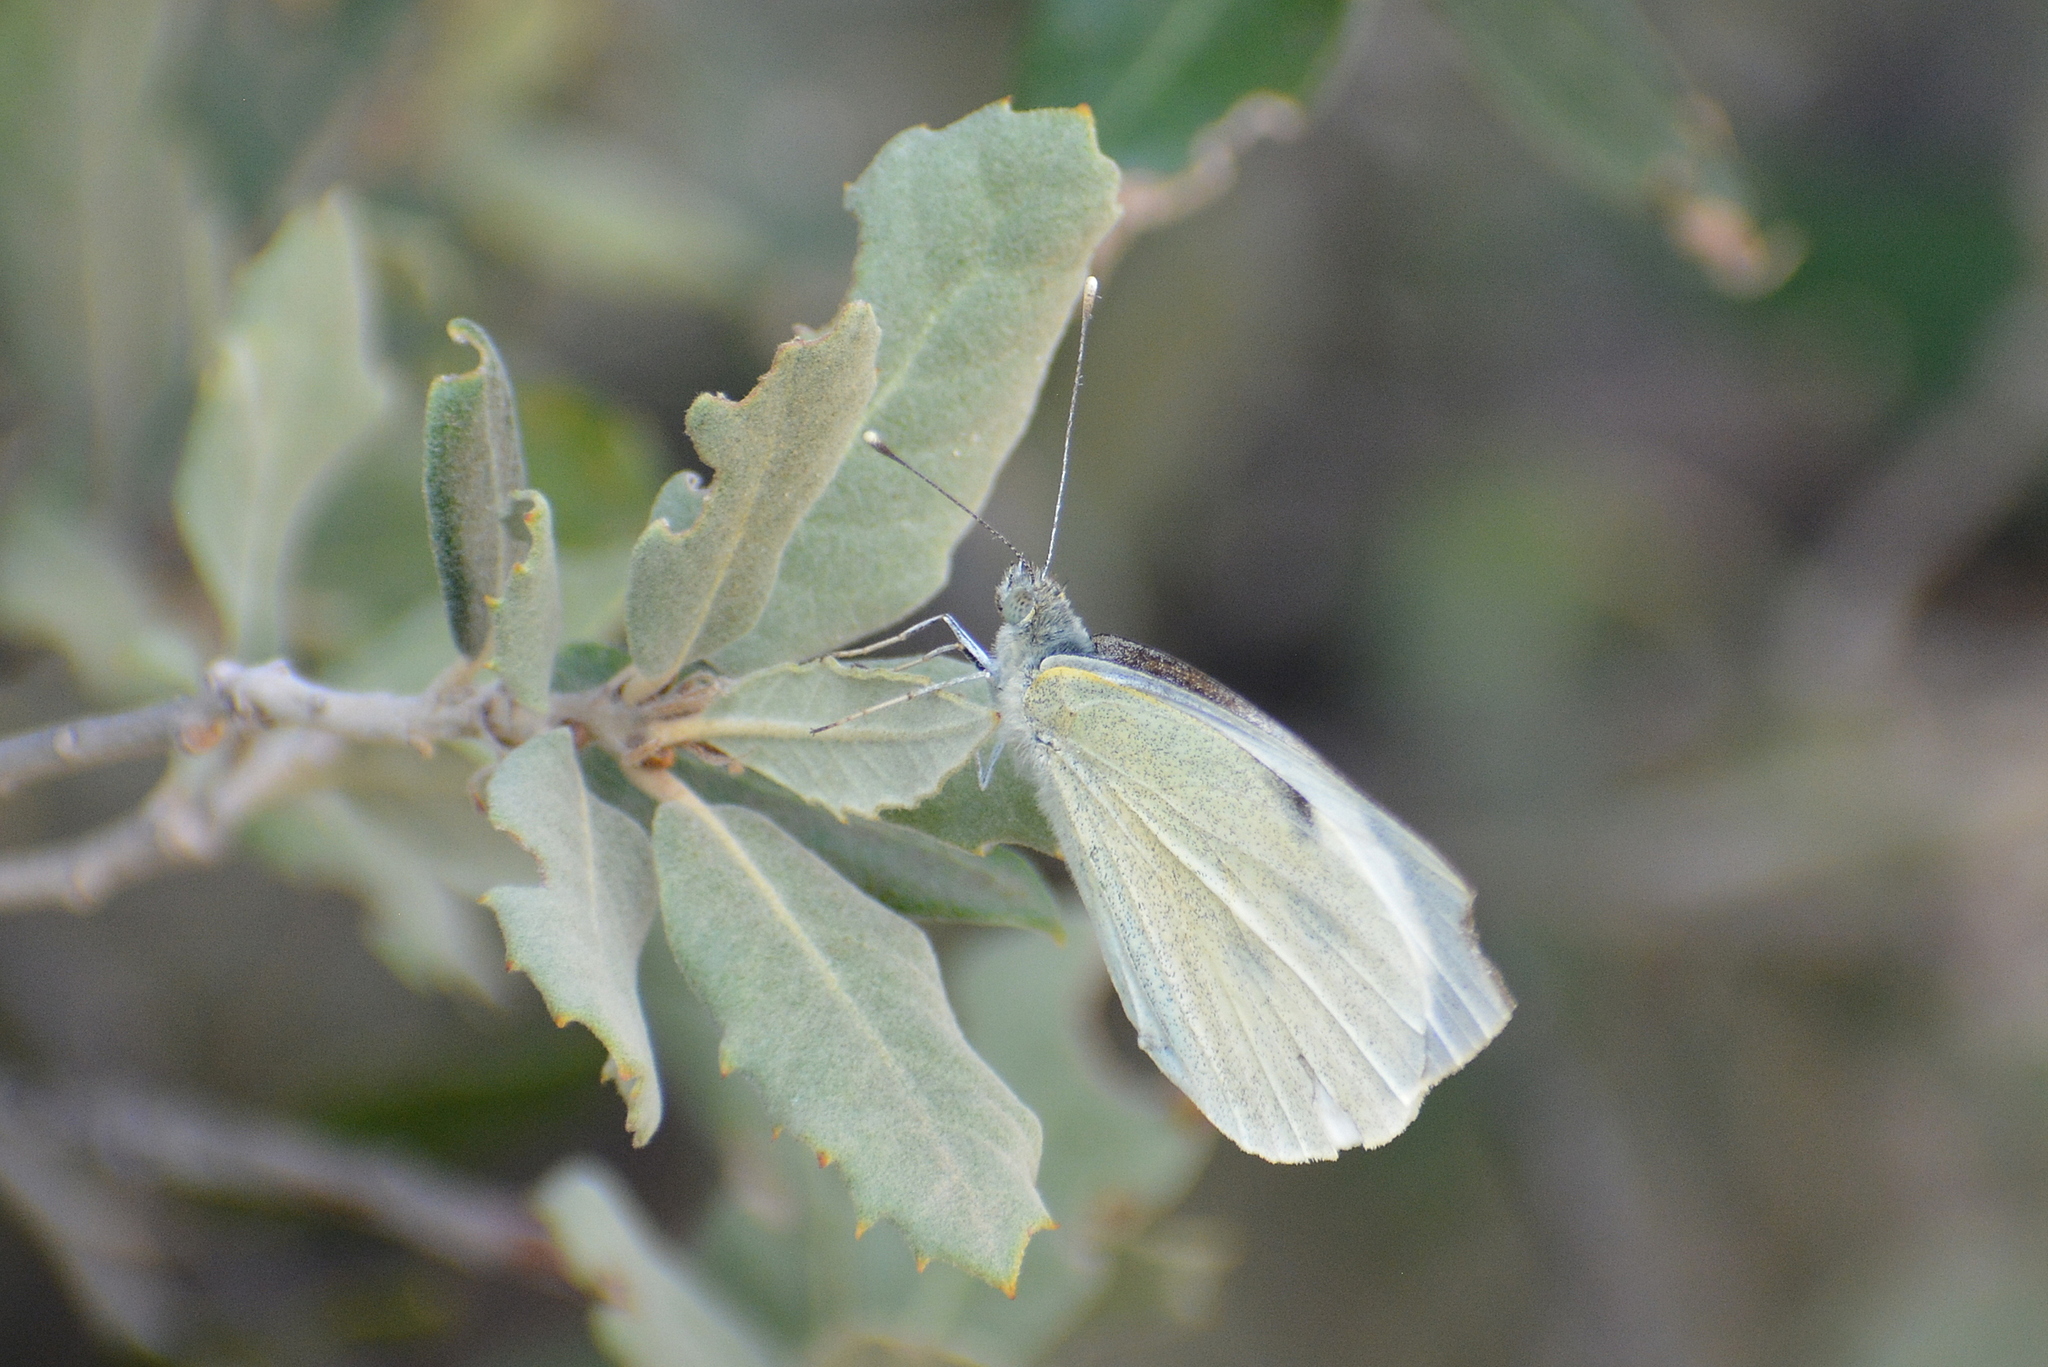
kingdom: Animalia
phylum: Arthropoda
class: Insecta
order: Lepidoptera
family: Pieridae
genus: Pieris
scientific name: Pieris brassicae
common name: Large white
